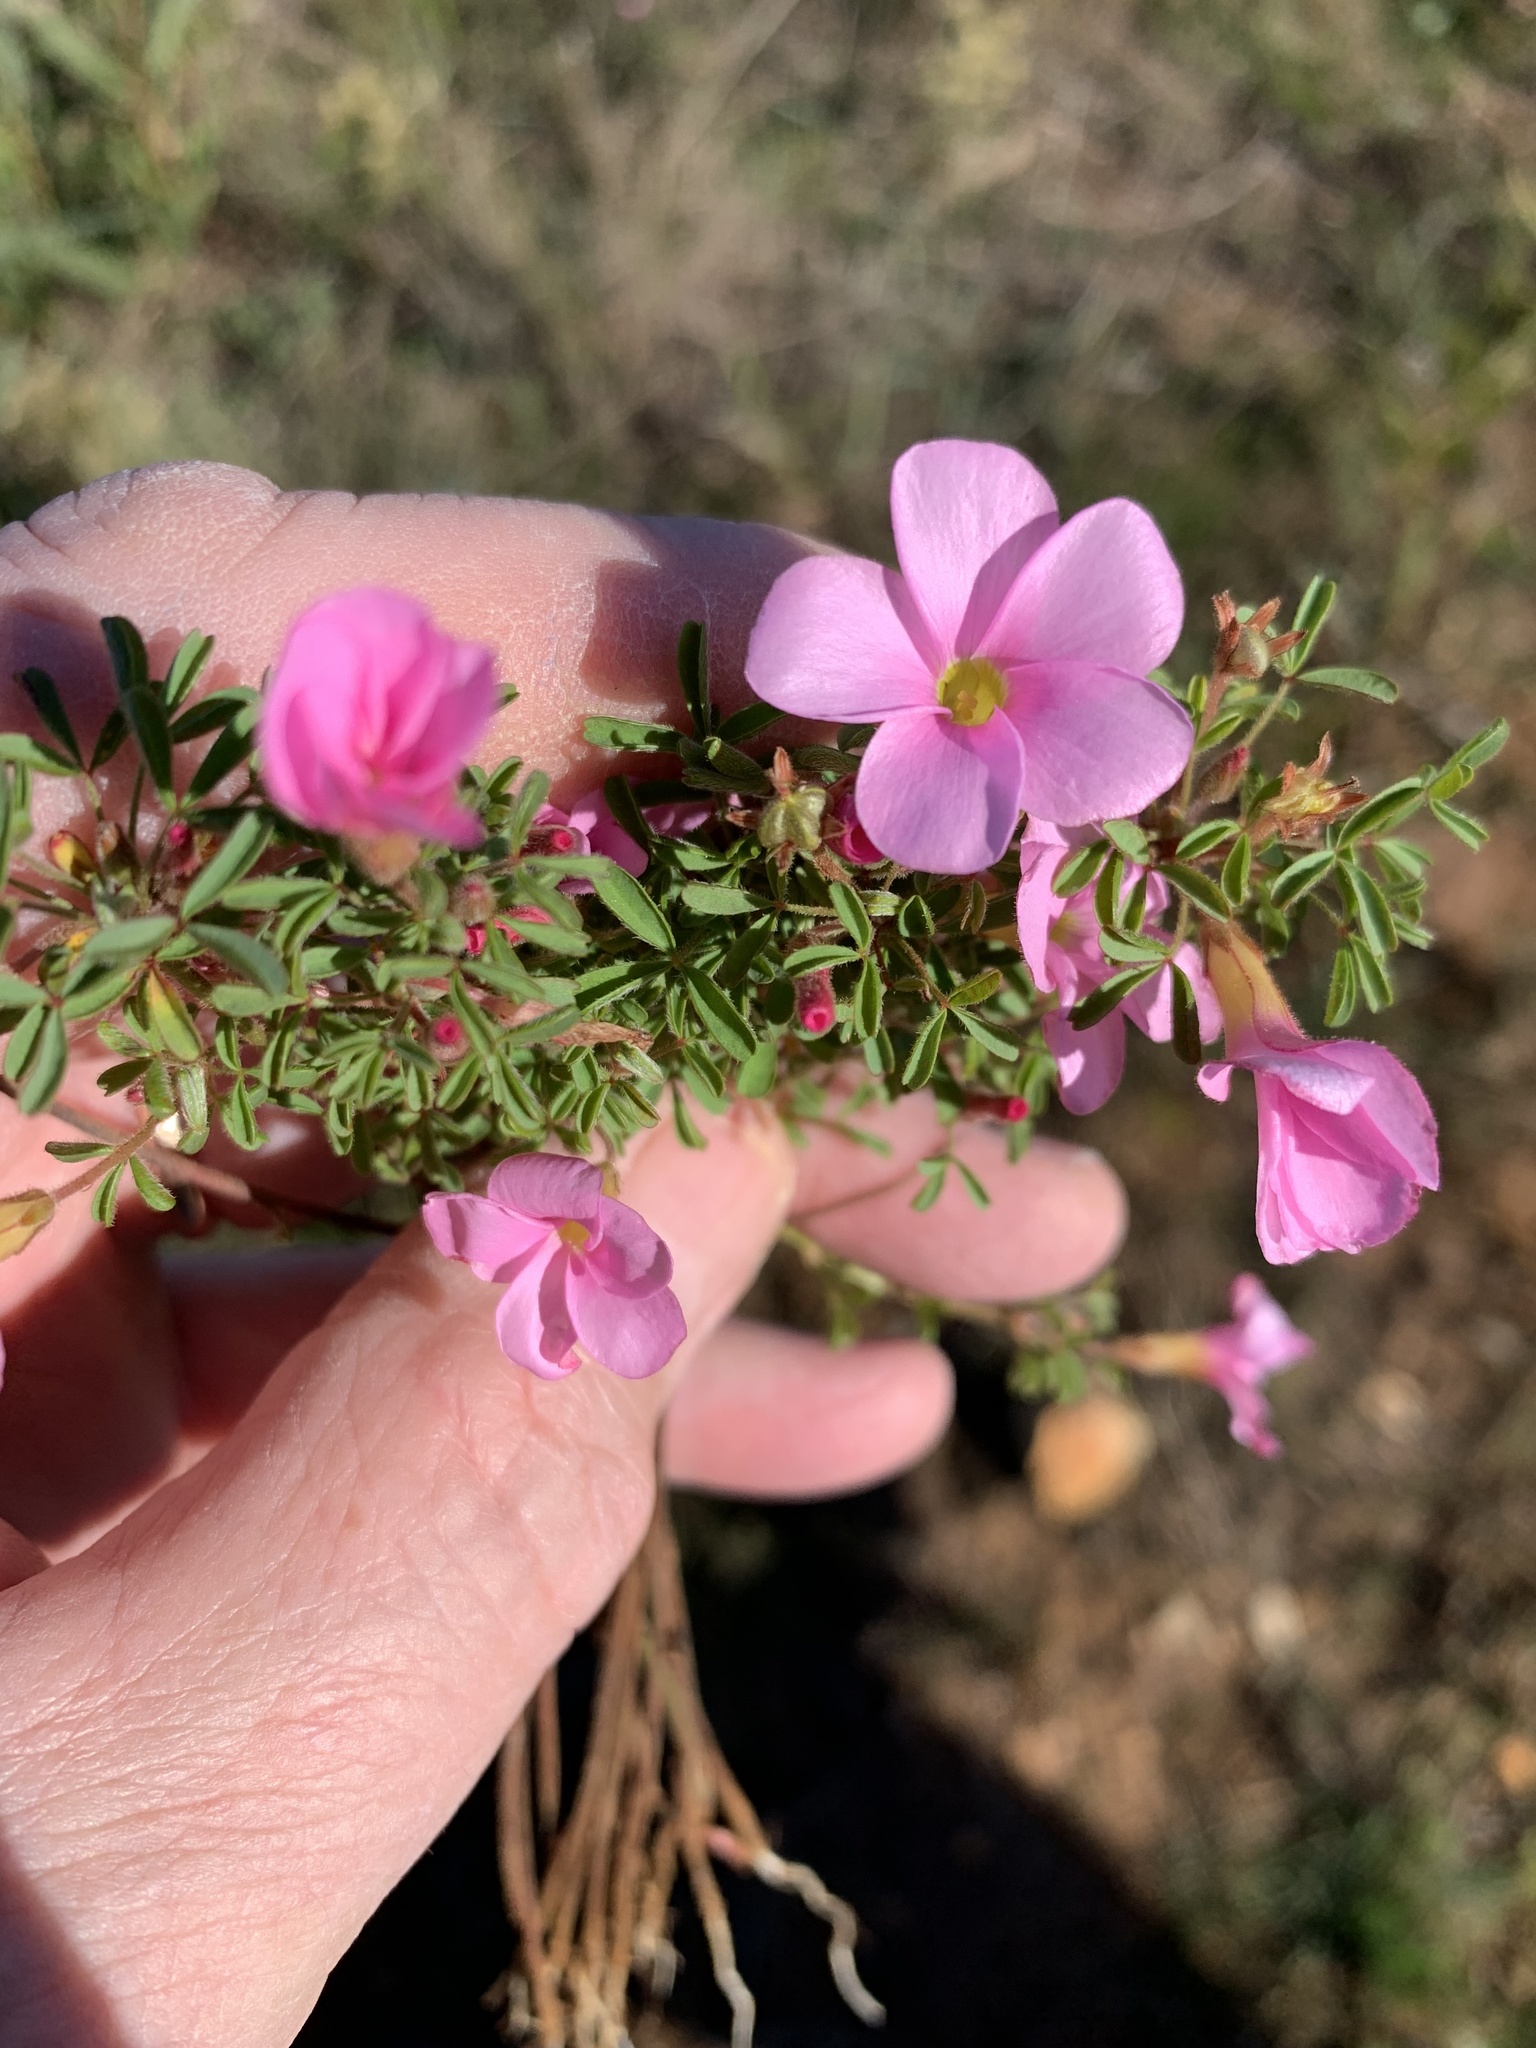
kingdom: Plantae
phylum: Tracheophyta
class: Magnoliopsida
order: Oxalidales
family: Oxalidaceae
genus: Oxalis
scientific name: Oxalis multicaulis
